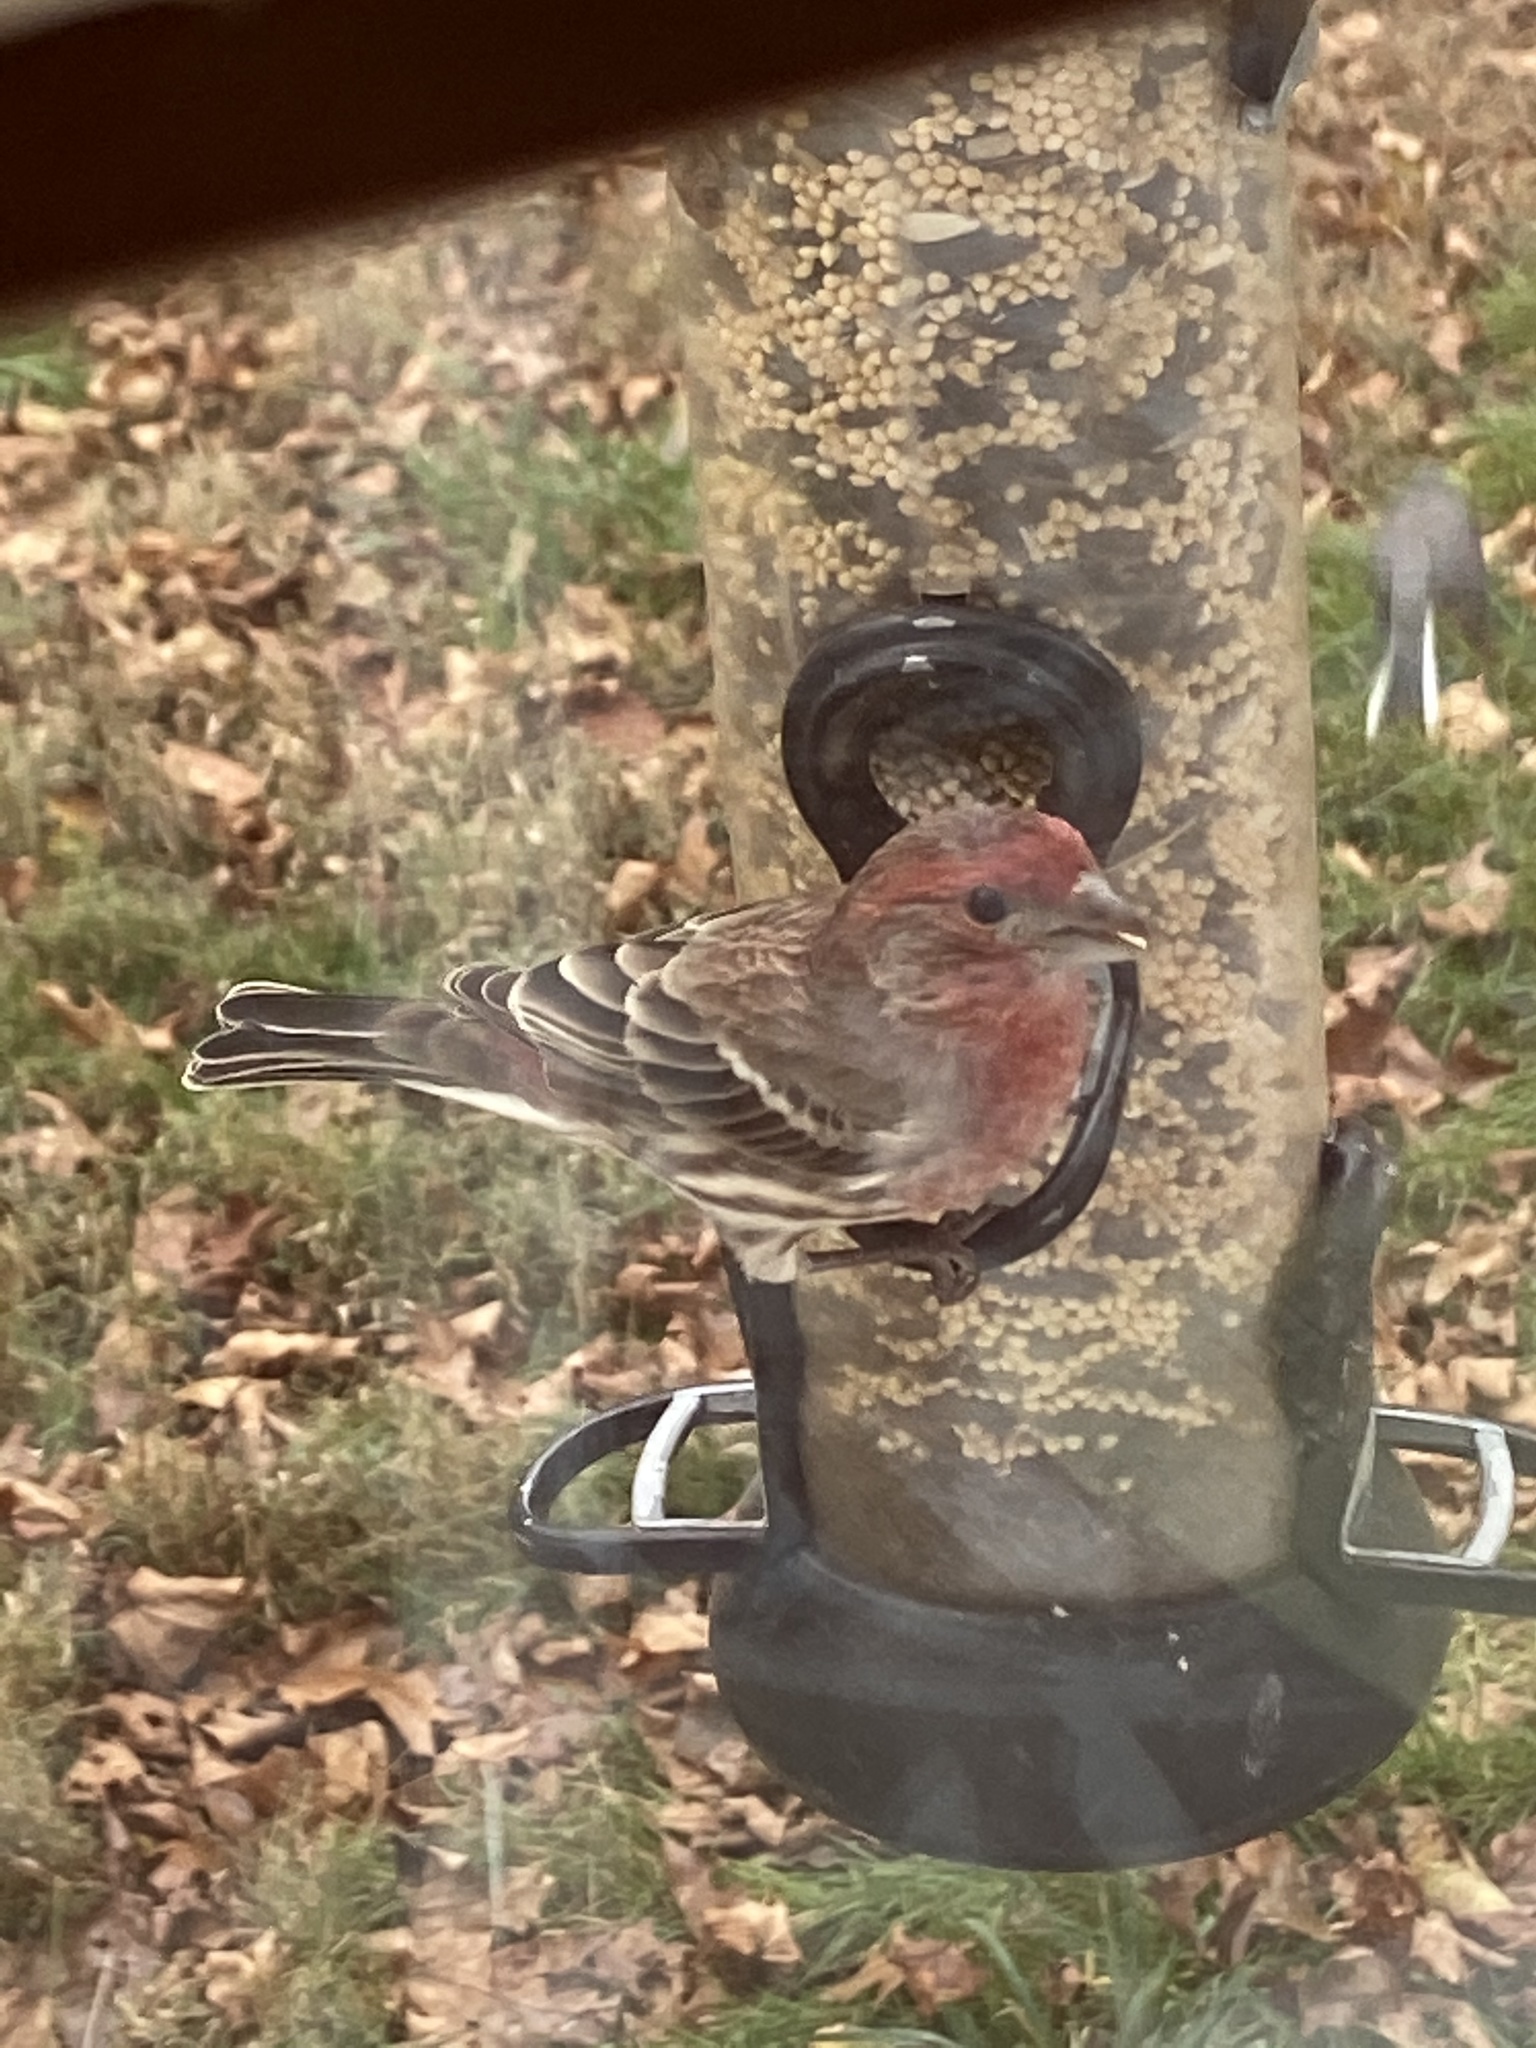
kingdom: Animalia
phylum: Chordata
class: Aves
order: Passeriformes
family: Fringillidae
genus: Haemorhous
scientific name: Haemorhous mexicanus
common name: House finch
